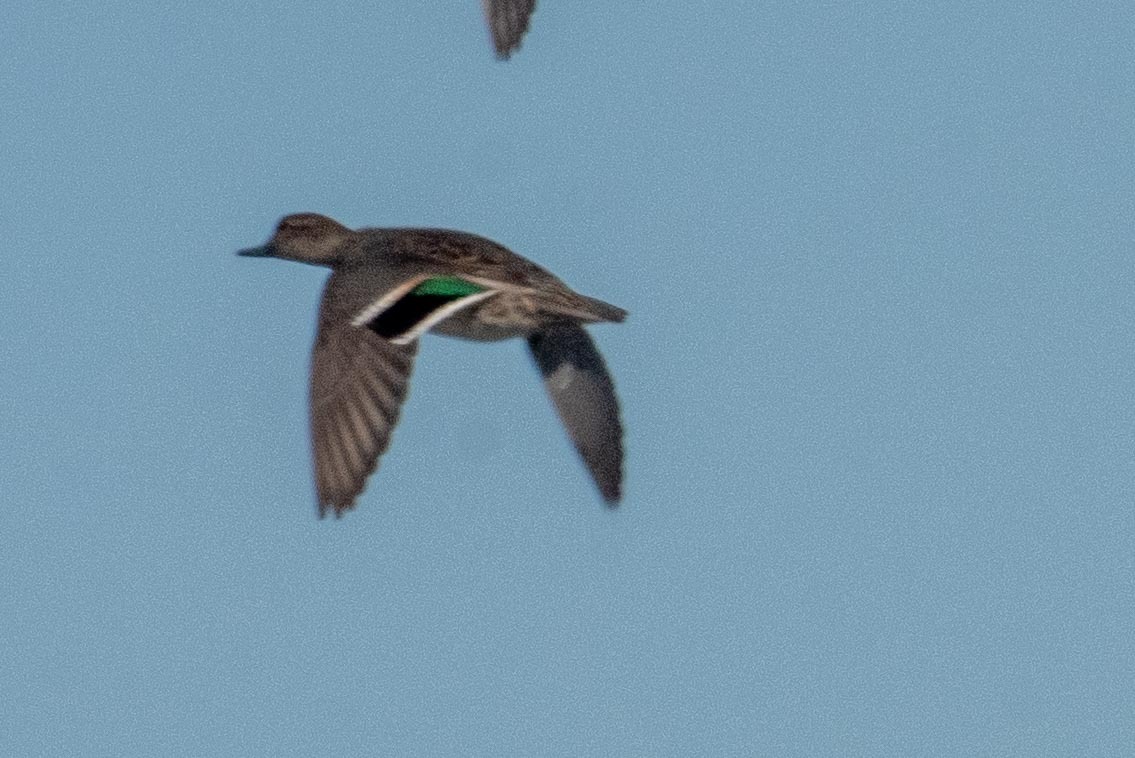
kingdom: Animalia
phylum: Chordata
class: Aves
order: Anseriformes
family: Anatidae
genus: Anas
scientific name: Anas crecca
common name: Eurasian teal
